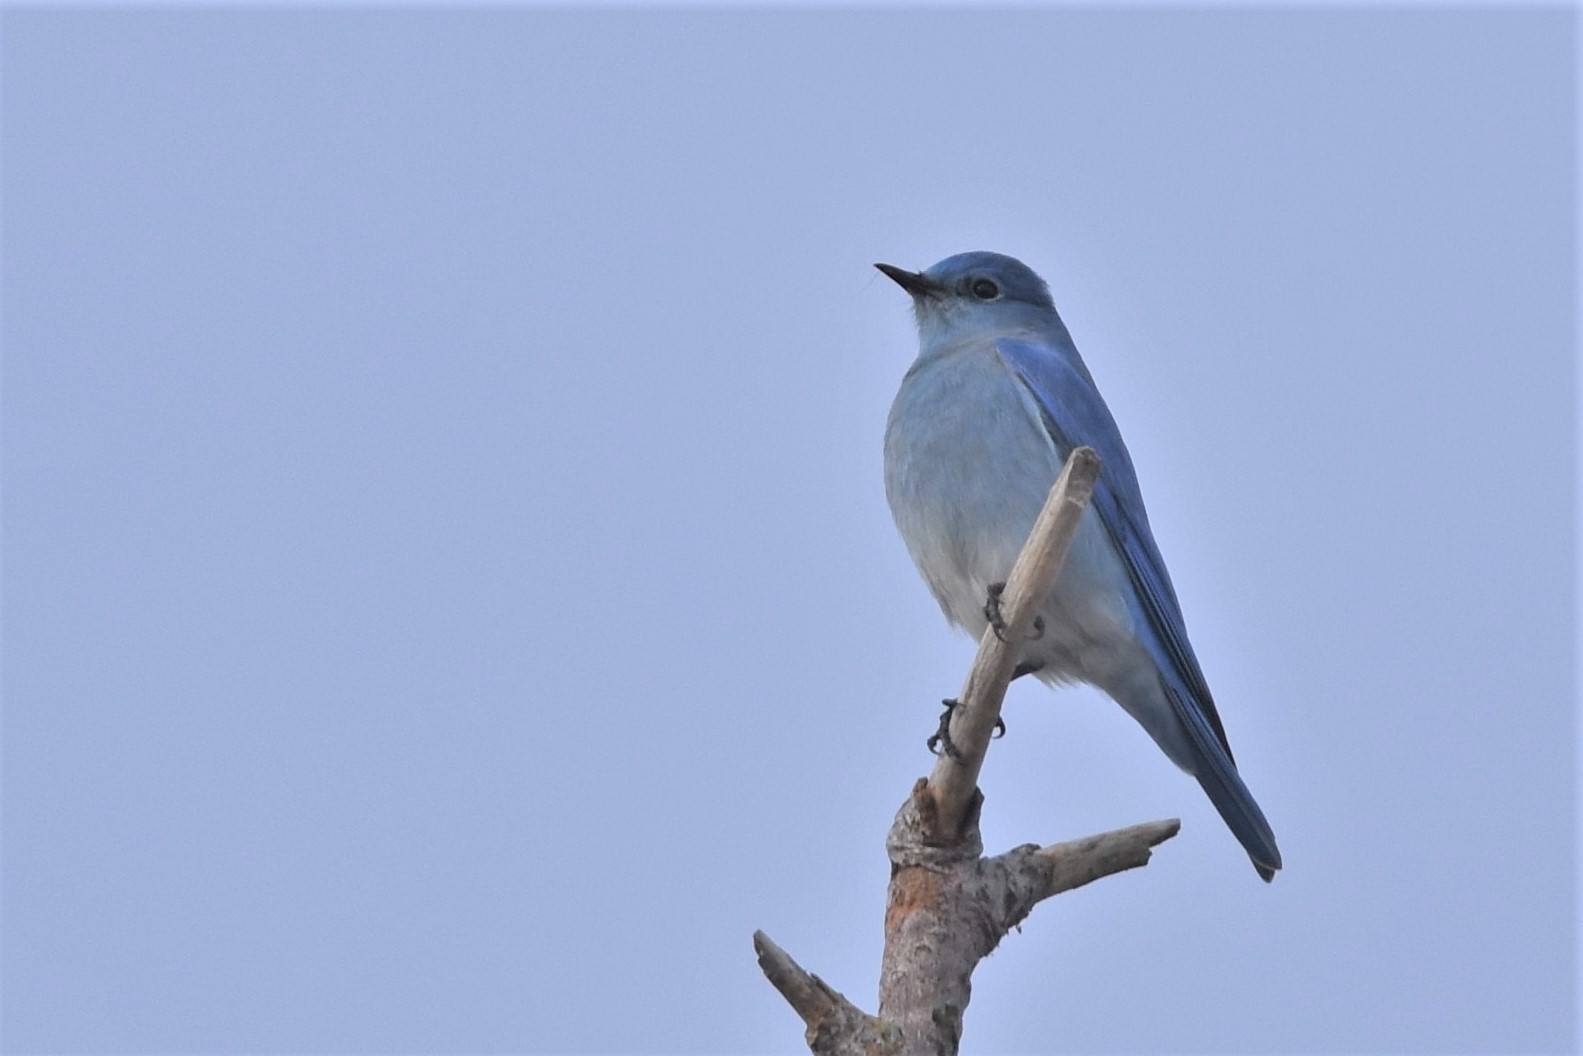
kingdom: Animalia
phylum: Chordata
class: Aves
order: Passeriformes
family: Turdidae
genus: Sialia
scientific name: Sialia currucoides
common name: Mountain bluebird
